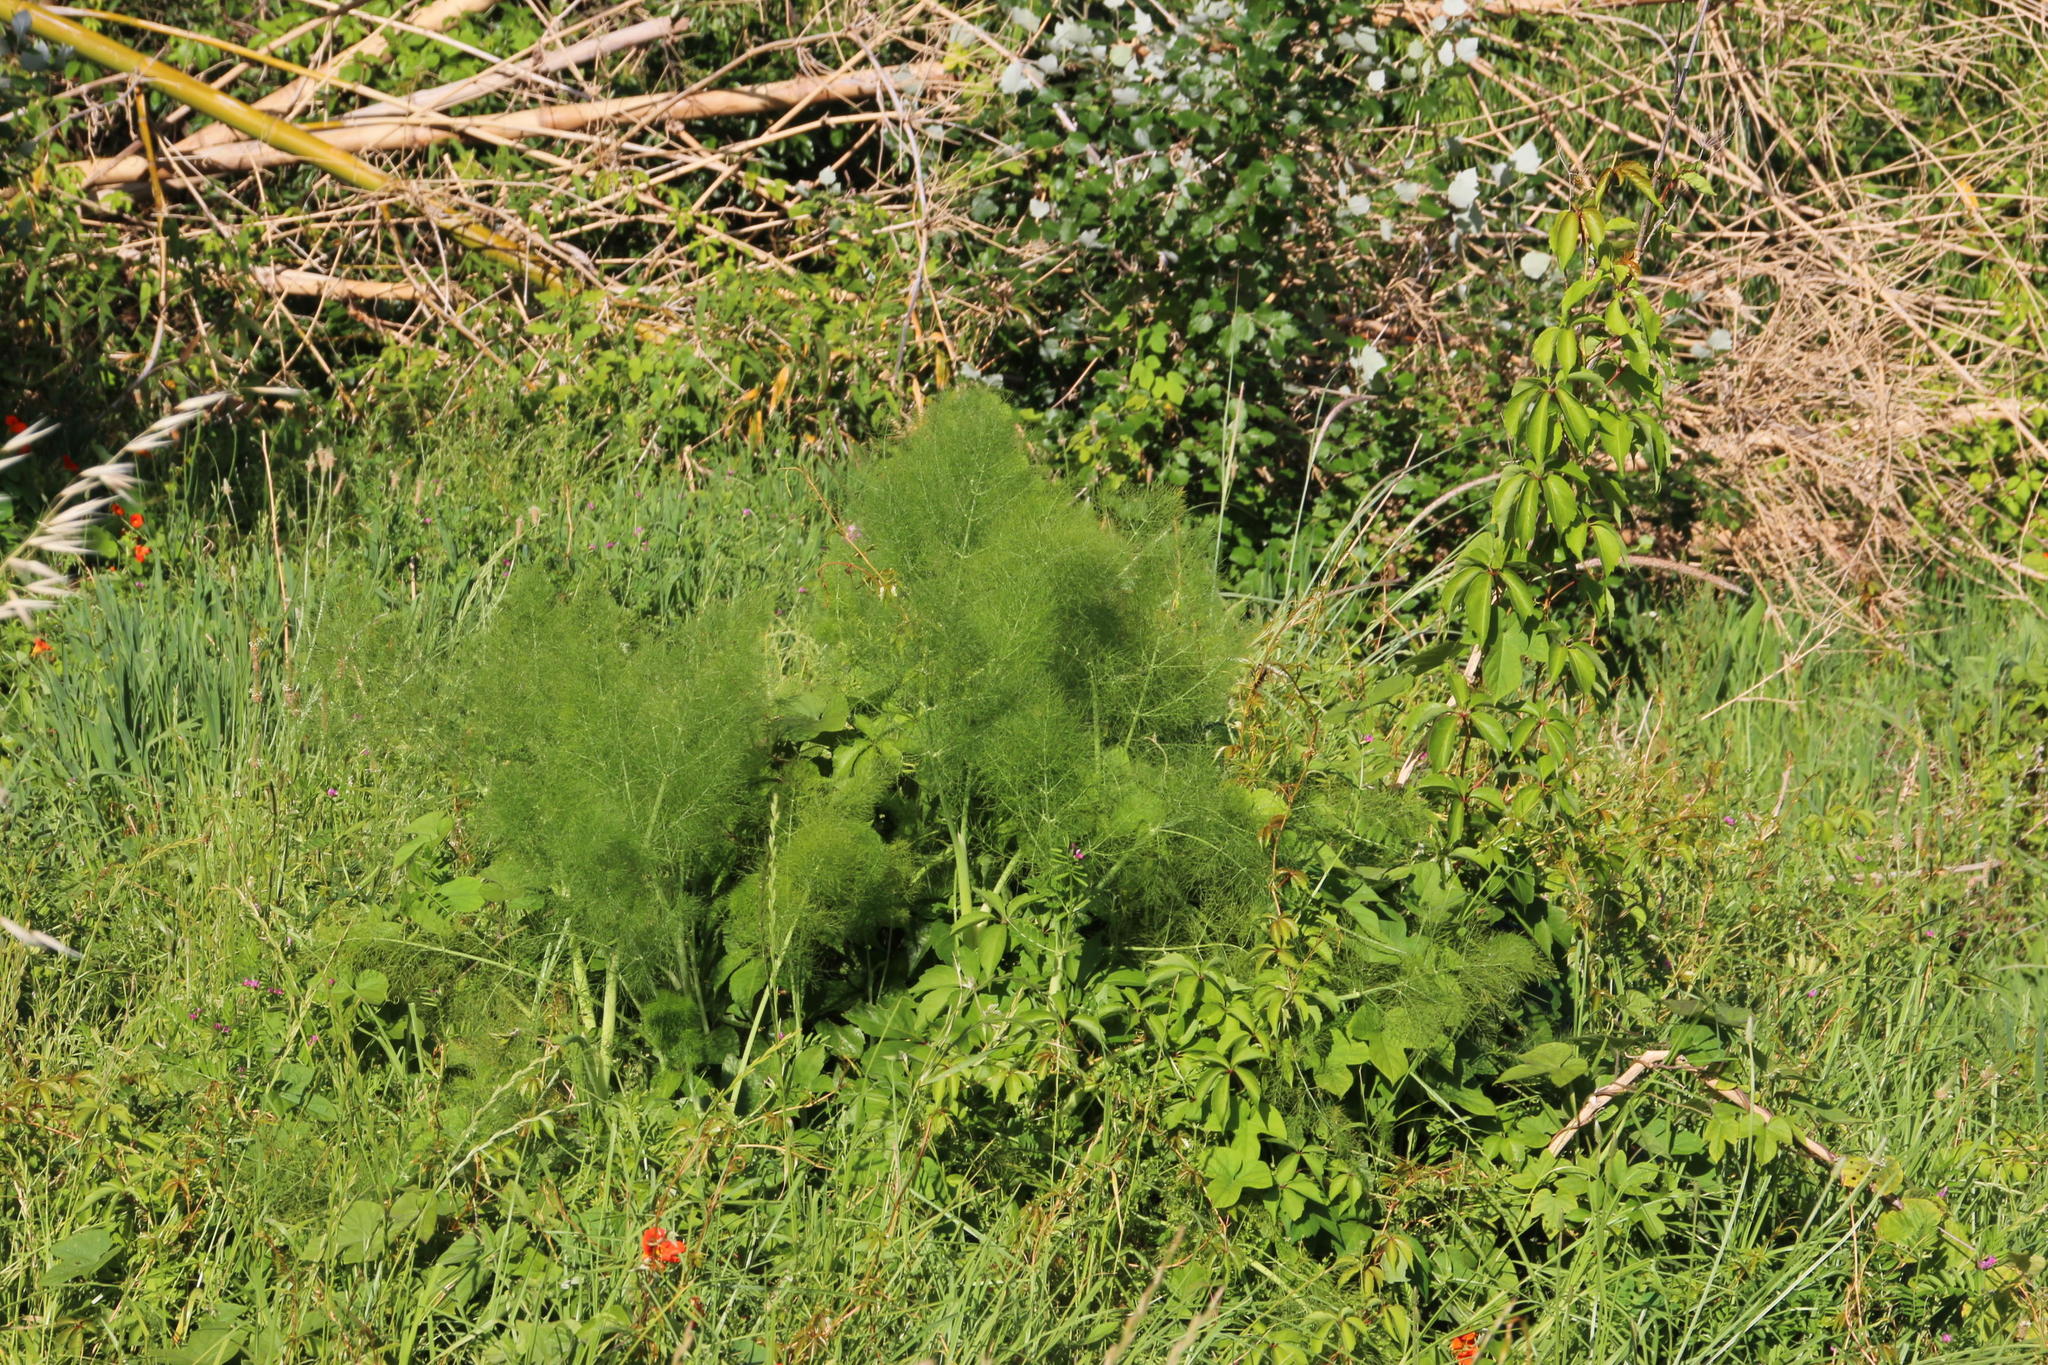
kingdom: Plantae
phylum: Tracheophyta
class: Magnoliopsida
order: Apiales
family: Apiaceae
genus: Foeniculum
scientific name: Foeniculum vulgare
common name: Fennel
